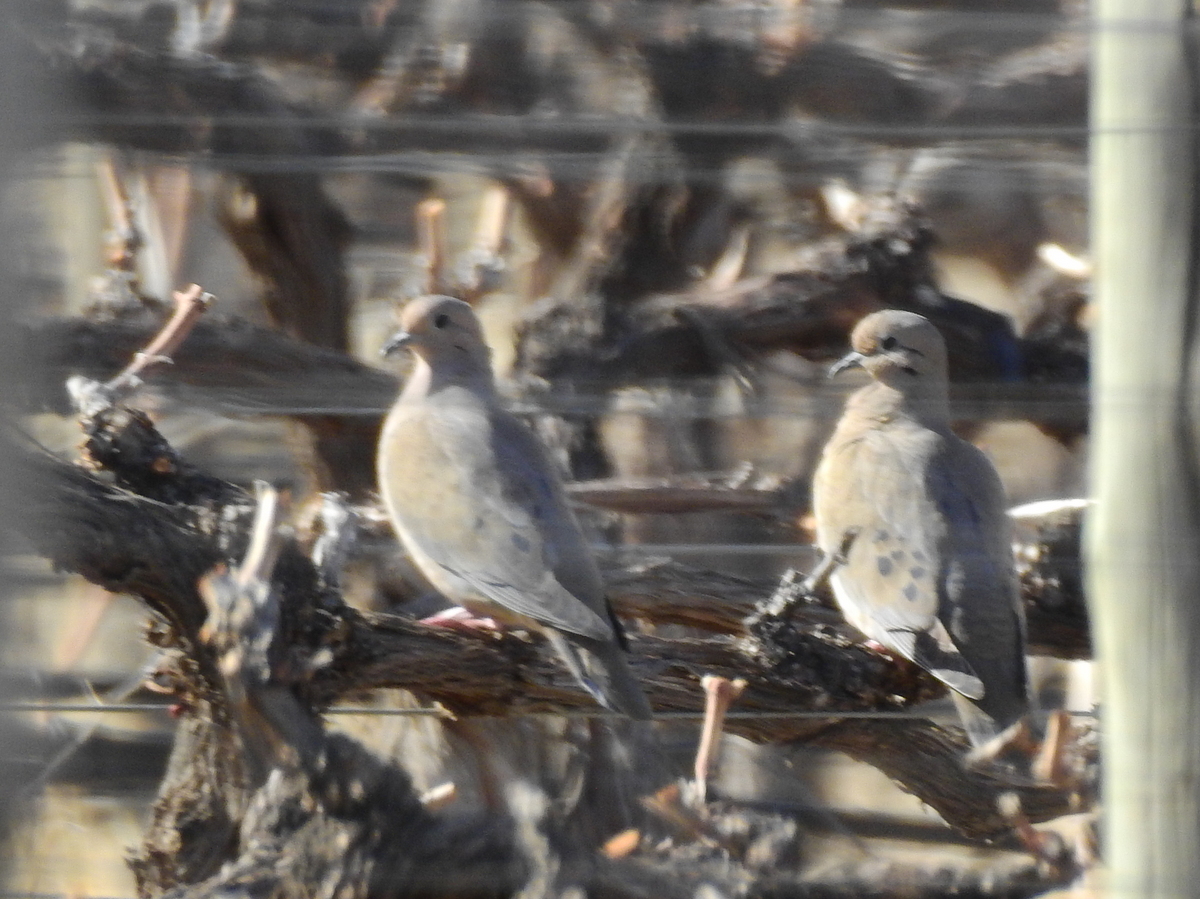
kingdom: Animalia
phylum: Chordata
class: Aves
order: Columbiformes
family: Columbidae
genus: Zenaida
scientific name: Zenaida auriculata
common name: Eared dove
